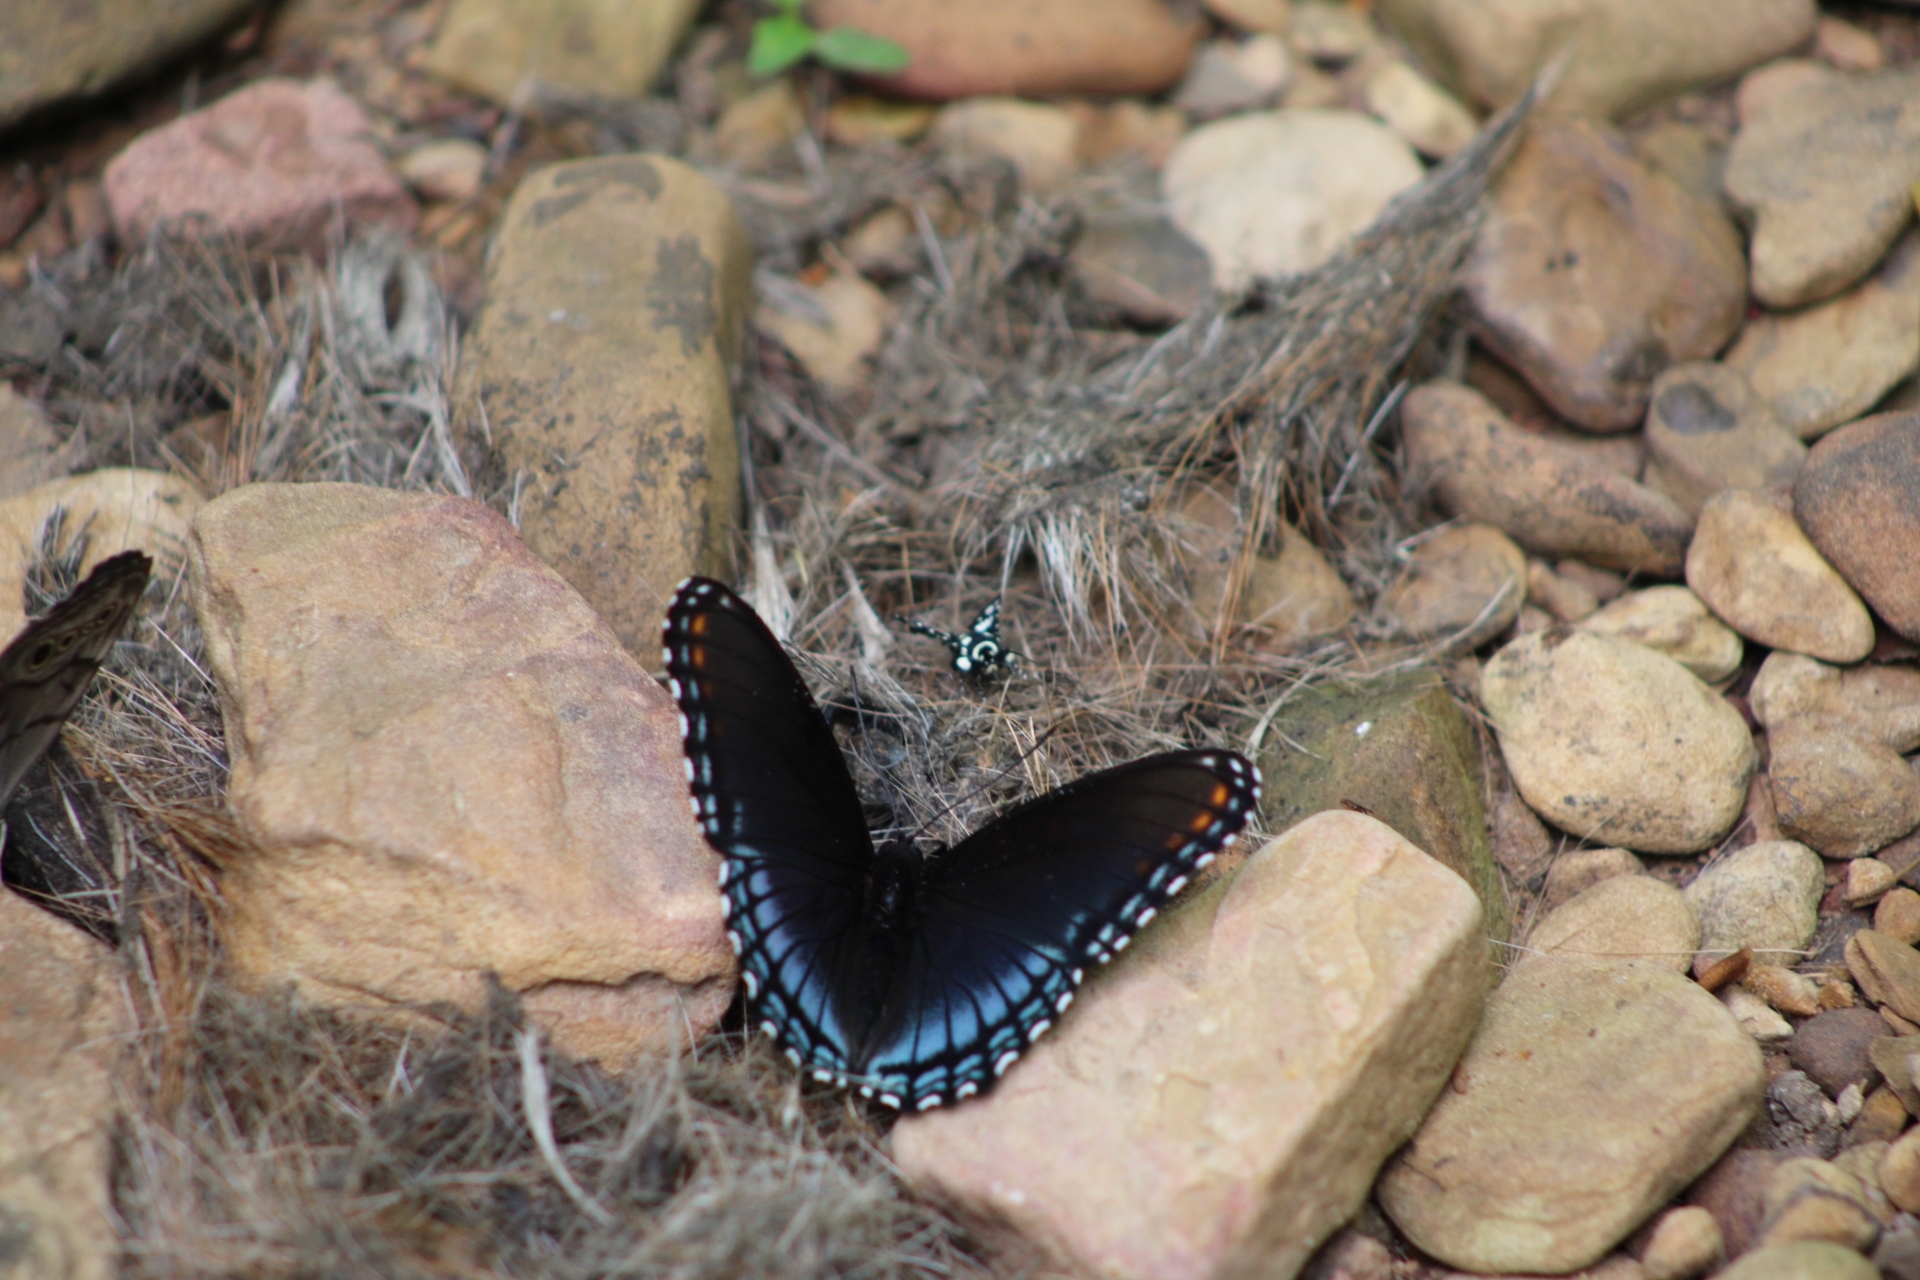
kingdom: Animalia
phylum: Arthropoda
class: Insecta
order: Lepidoptera
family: Nymphalidae
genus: Limenitis
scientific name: Limenitis astyanax
